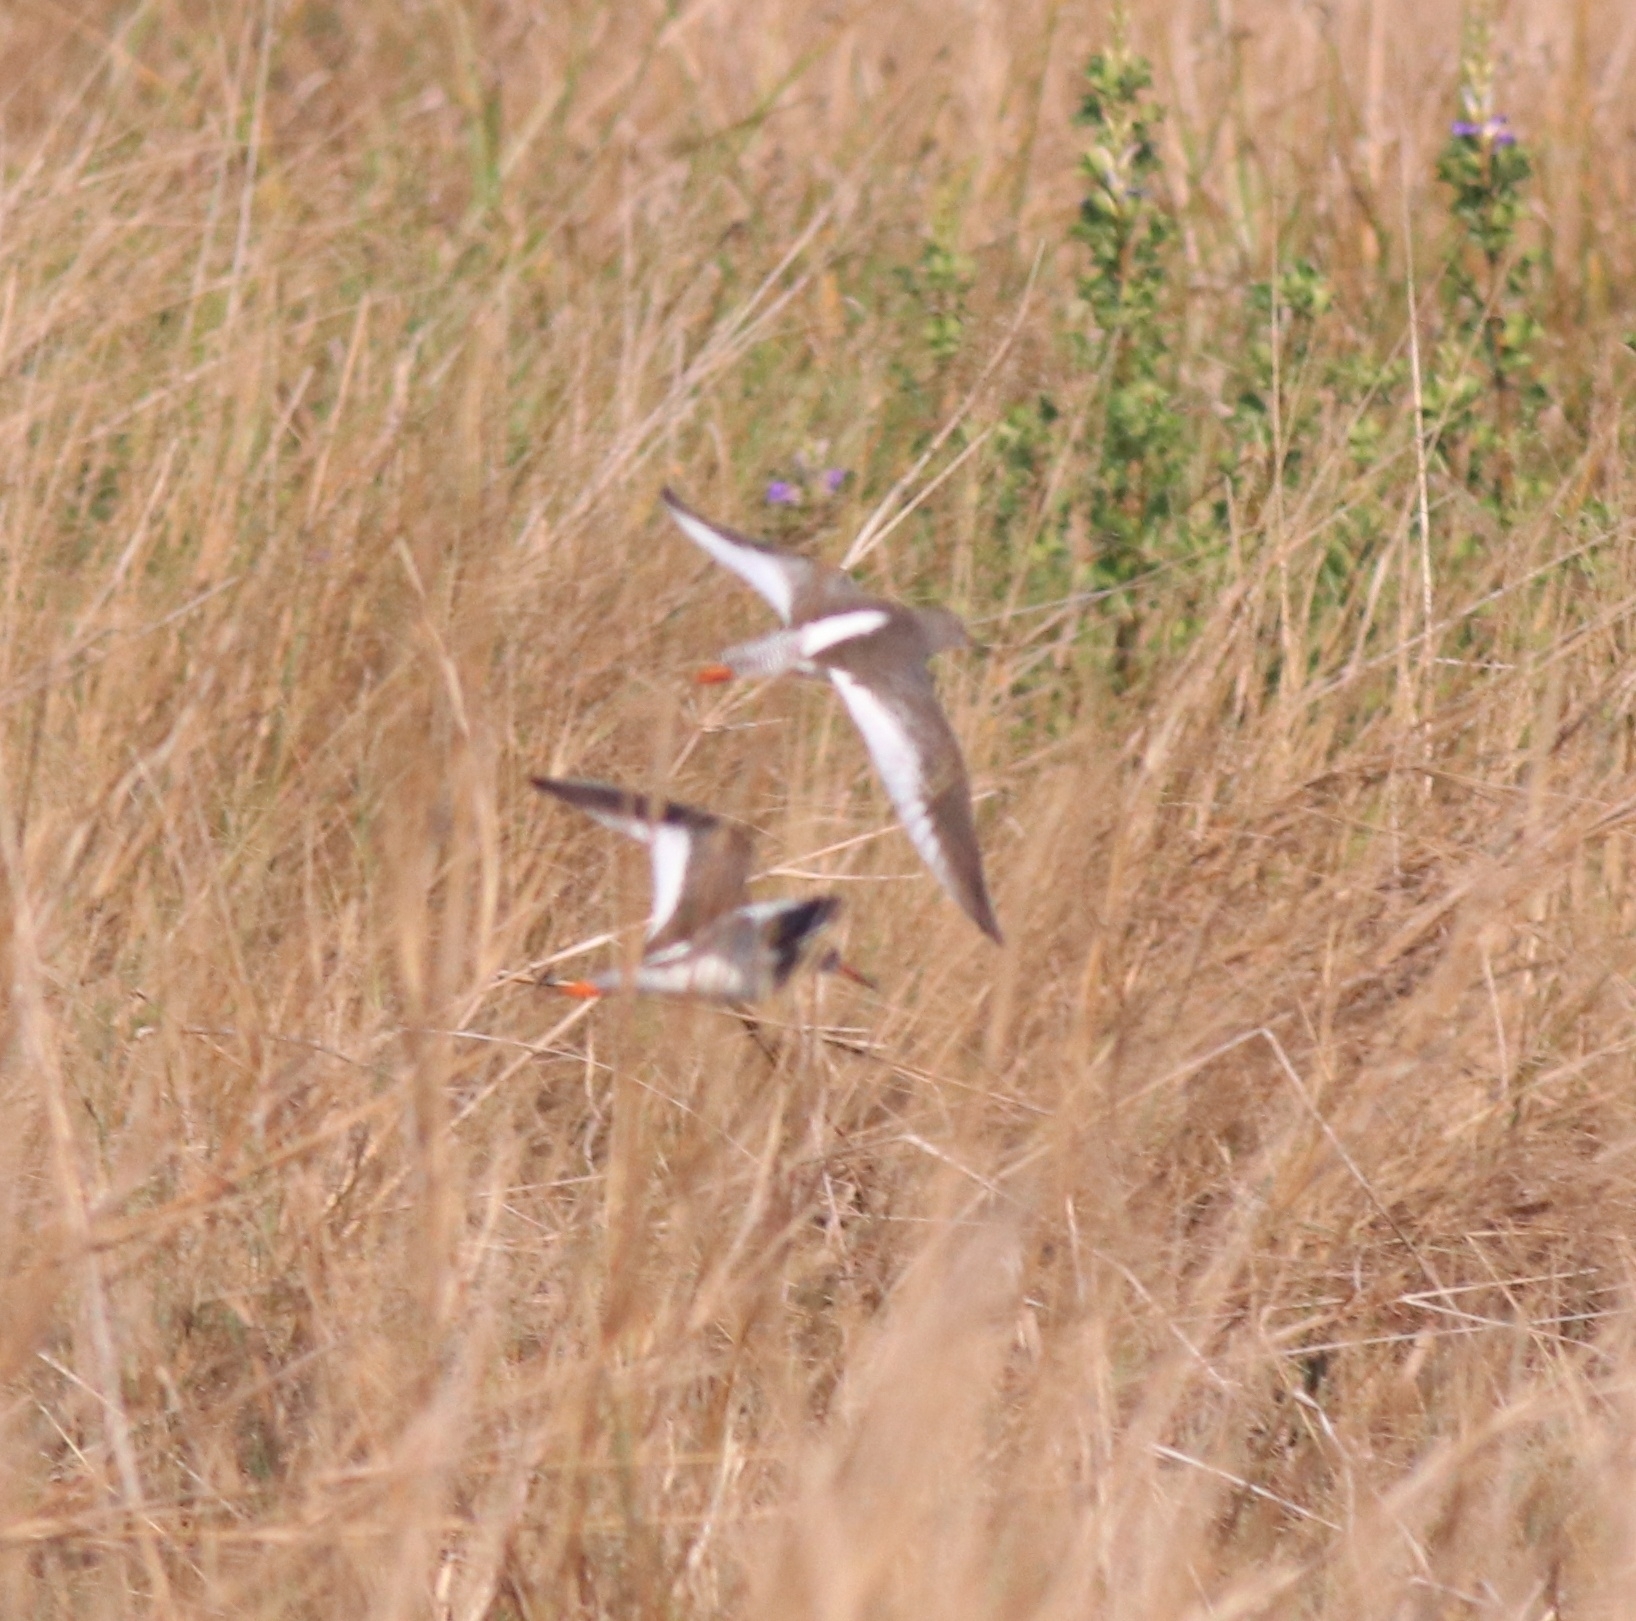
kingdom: Animalia
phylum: Chordata
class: Aves
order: Charadriiformes
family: Scolopacidae
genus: Tringa
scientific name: Tringa totanus
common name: Common redshank
